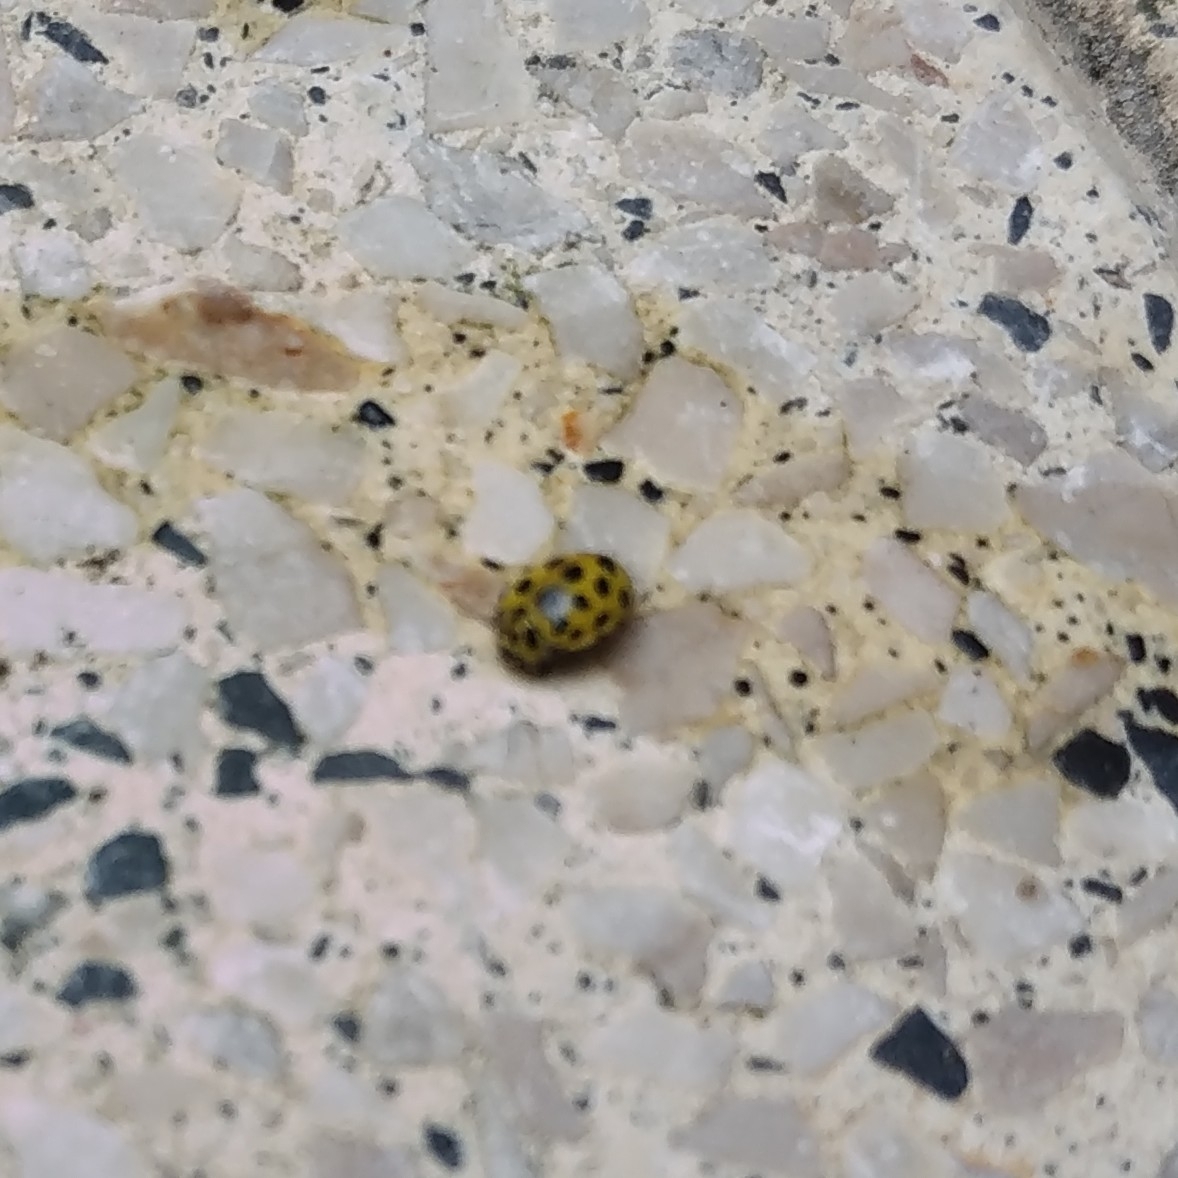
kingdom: Animalia
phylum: Arthropoda
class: Insecta
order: Coleoptera
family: Coccinellidae
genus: Psyllobora
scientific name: Psyllobora vigintiduopunctata
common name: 22-spot ladybird
